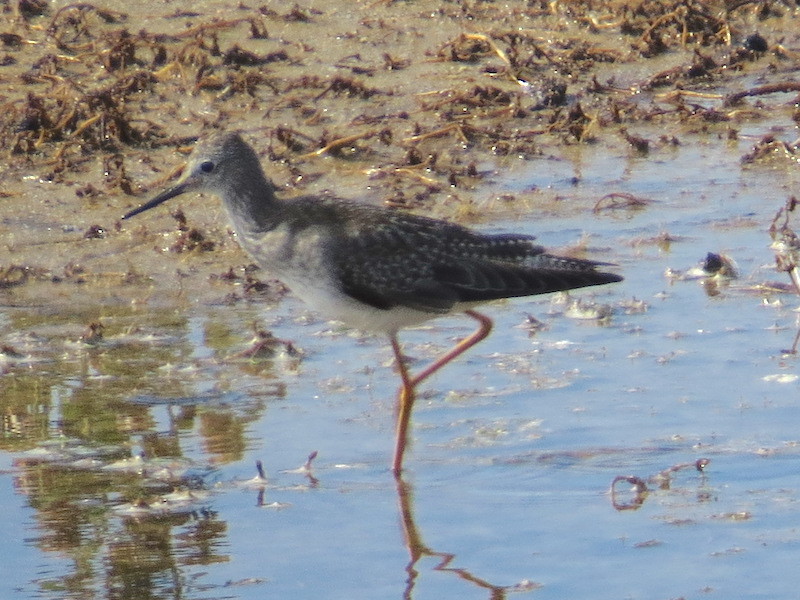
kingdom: Animalia
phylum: Chordata
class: Aves
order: Charadriiformes
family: Scolopacidae
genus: Tringa
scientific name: Tringa melanoleuca
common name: Greater yellowlegs
